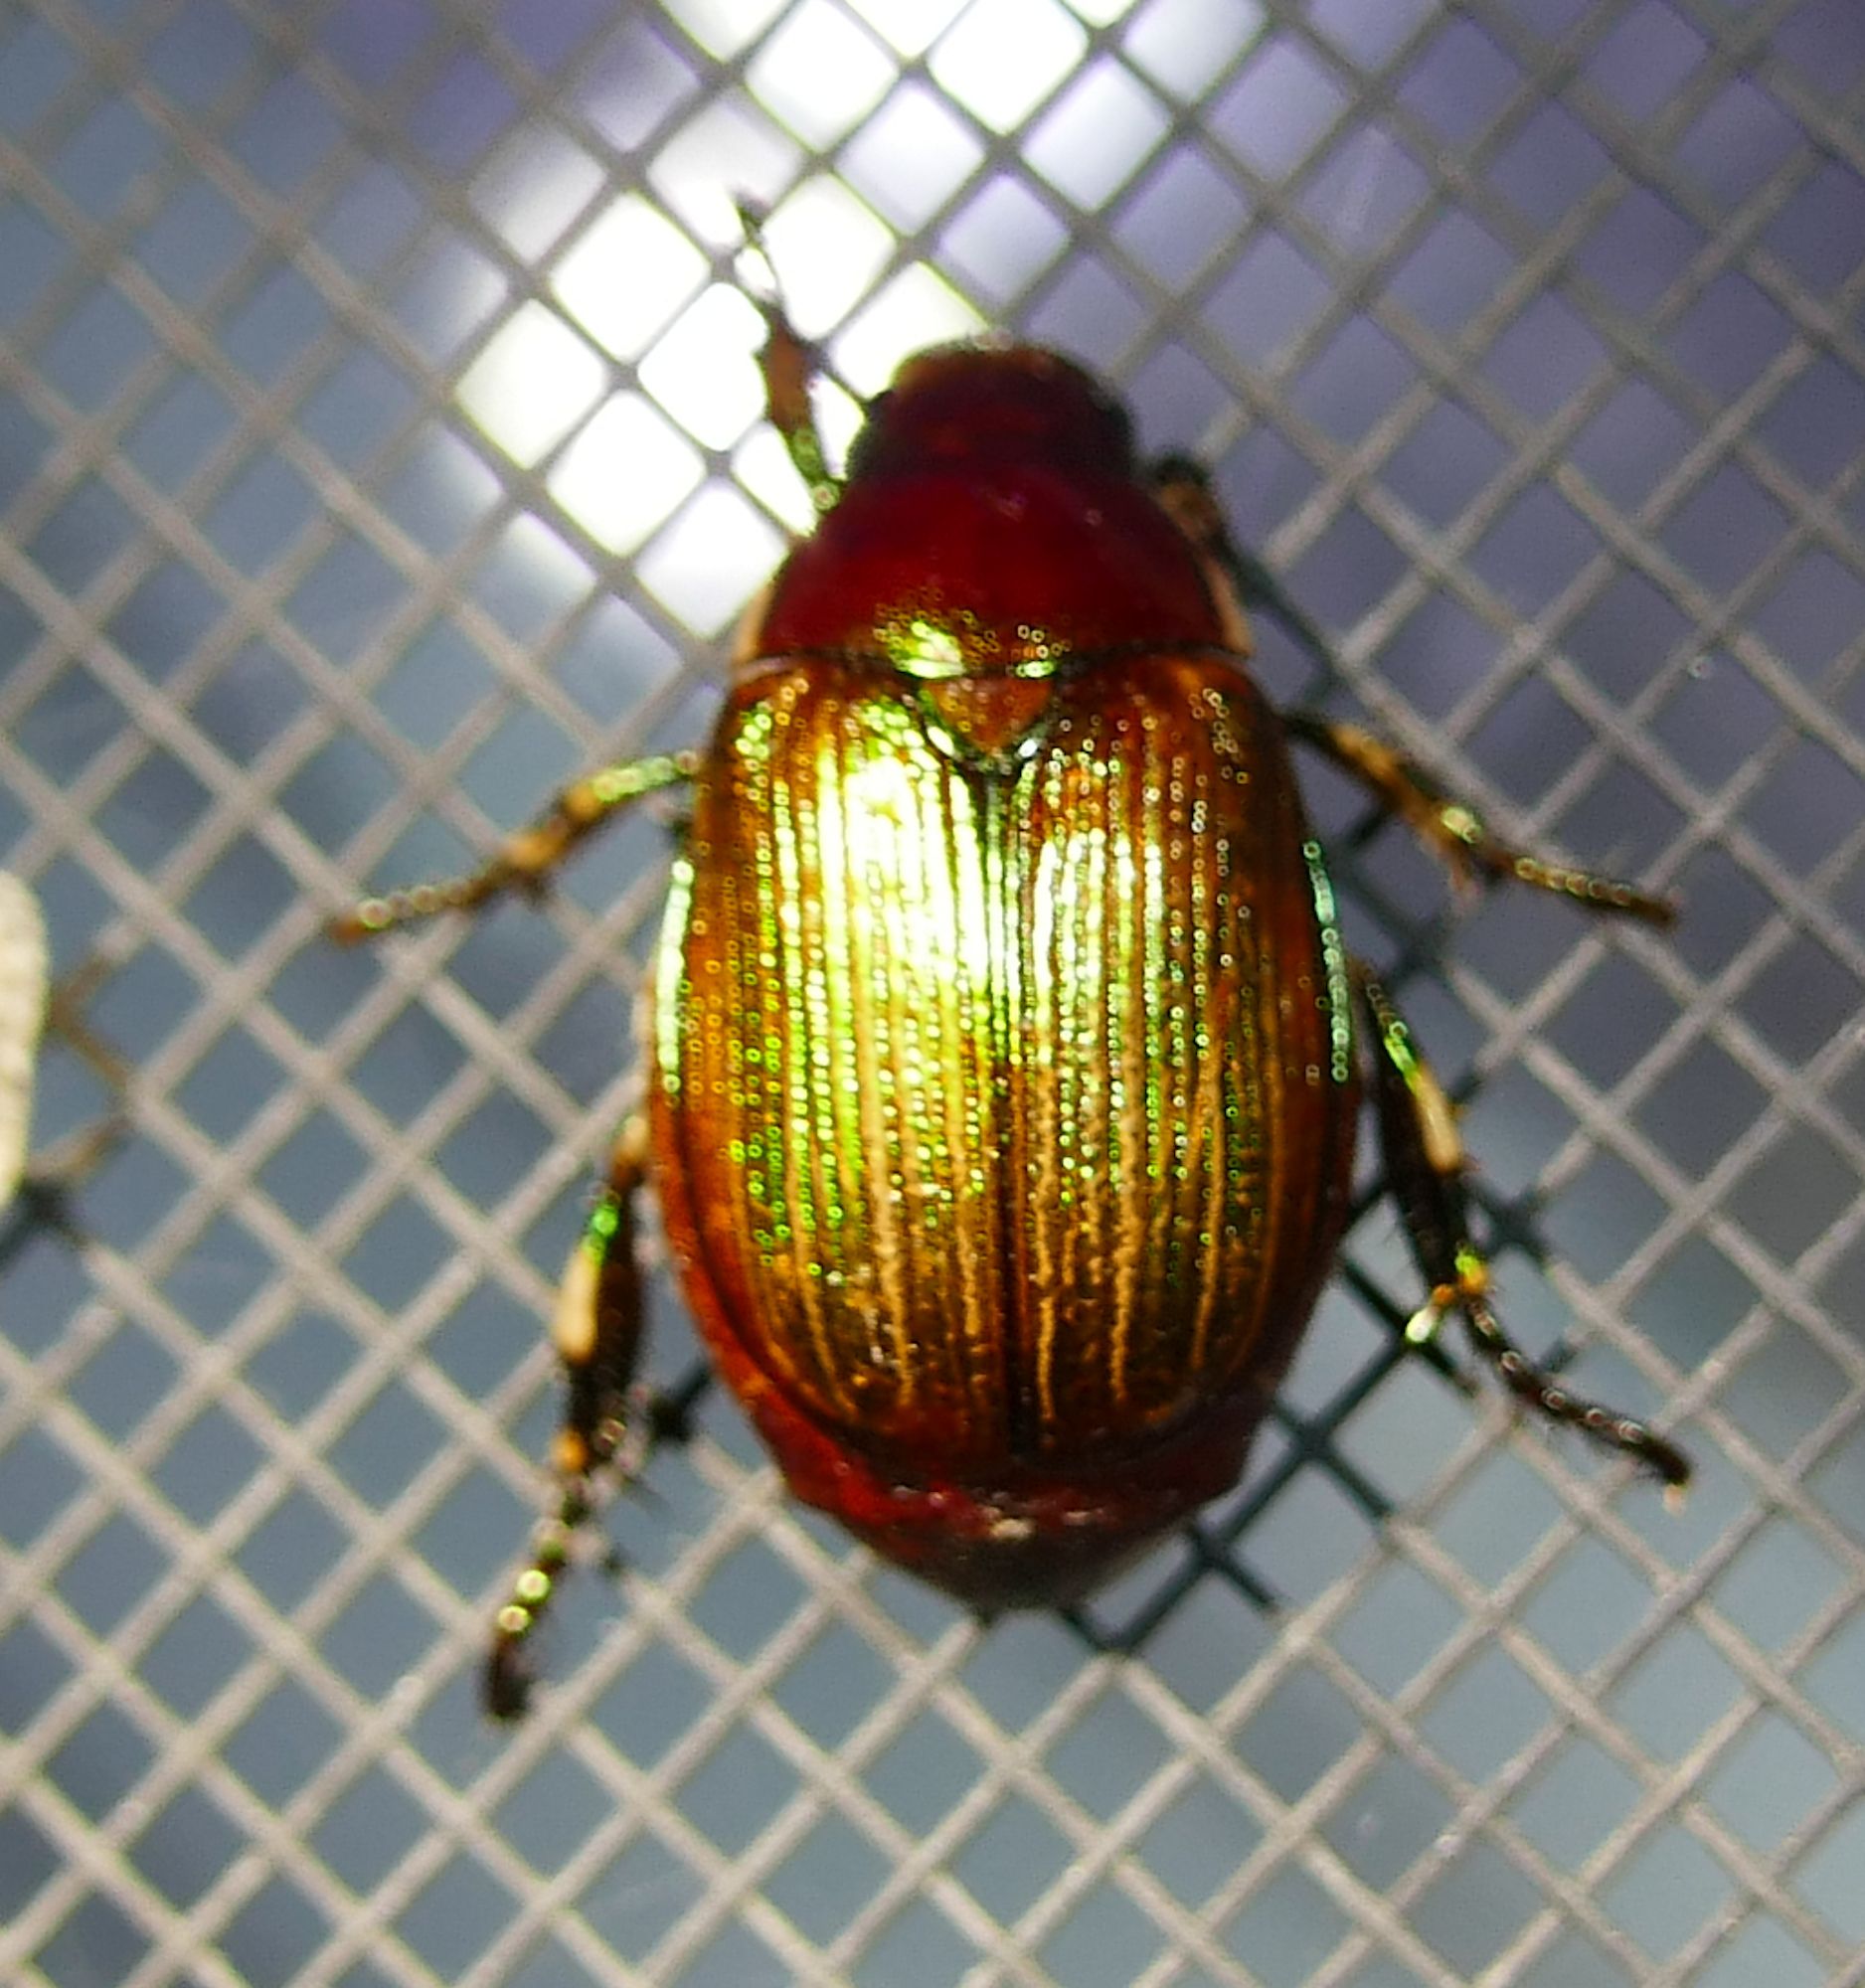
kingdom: Animalia
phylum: Arthropoda
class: Insecta
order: Coleoptera
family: Scarabaeidae
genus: Callistethus
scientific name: Callistethus marginatus
